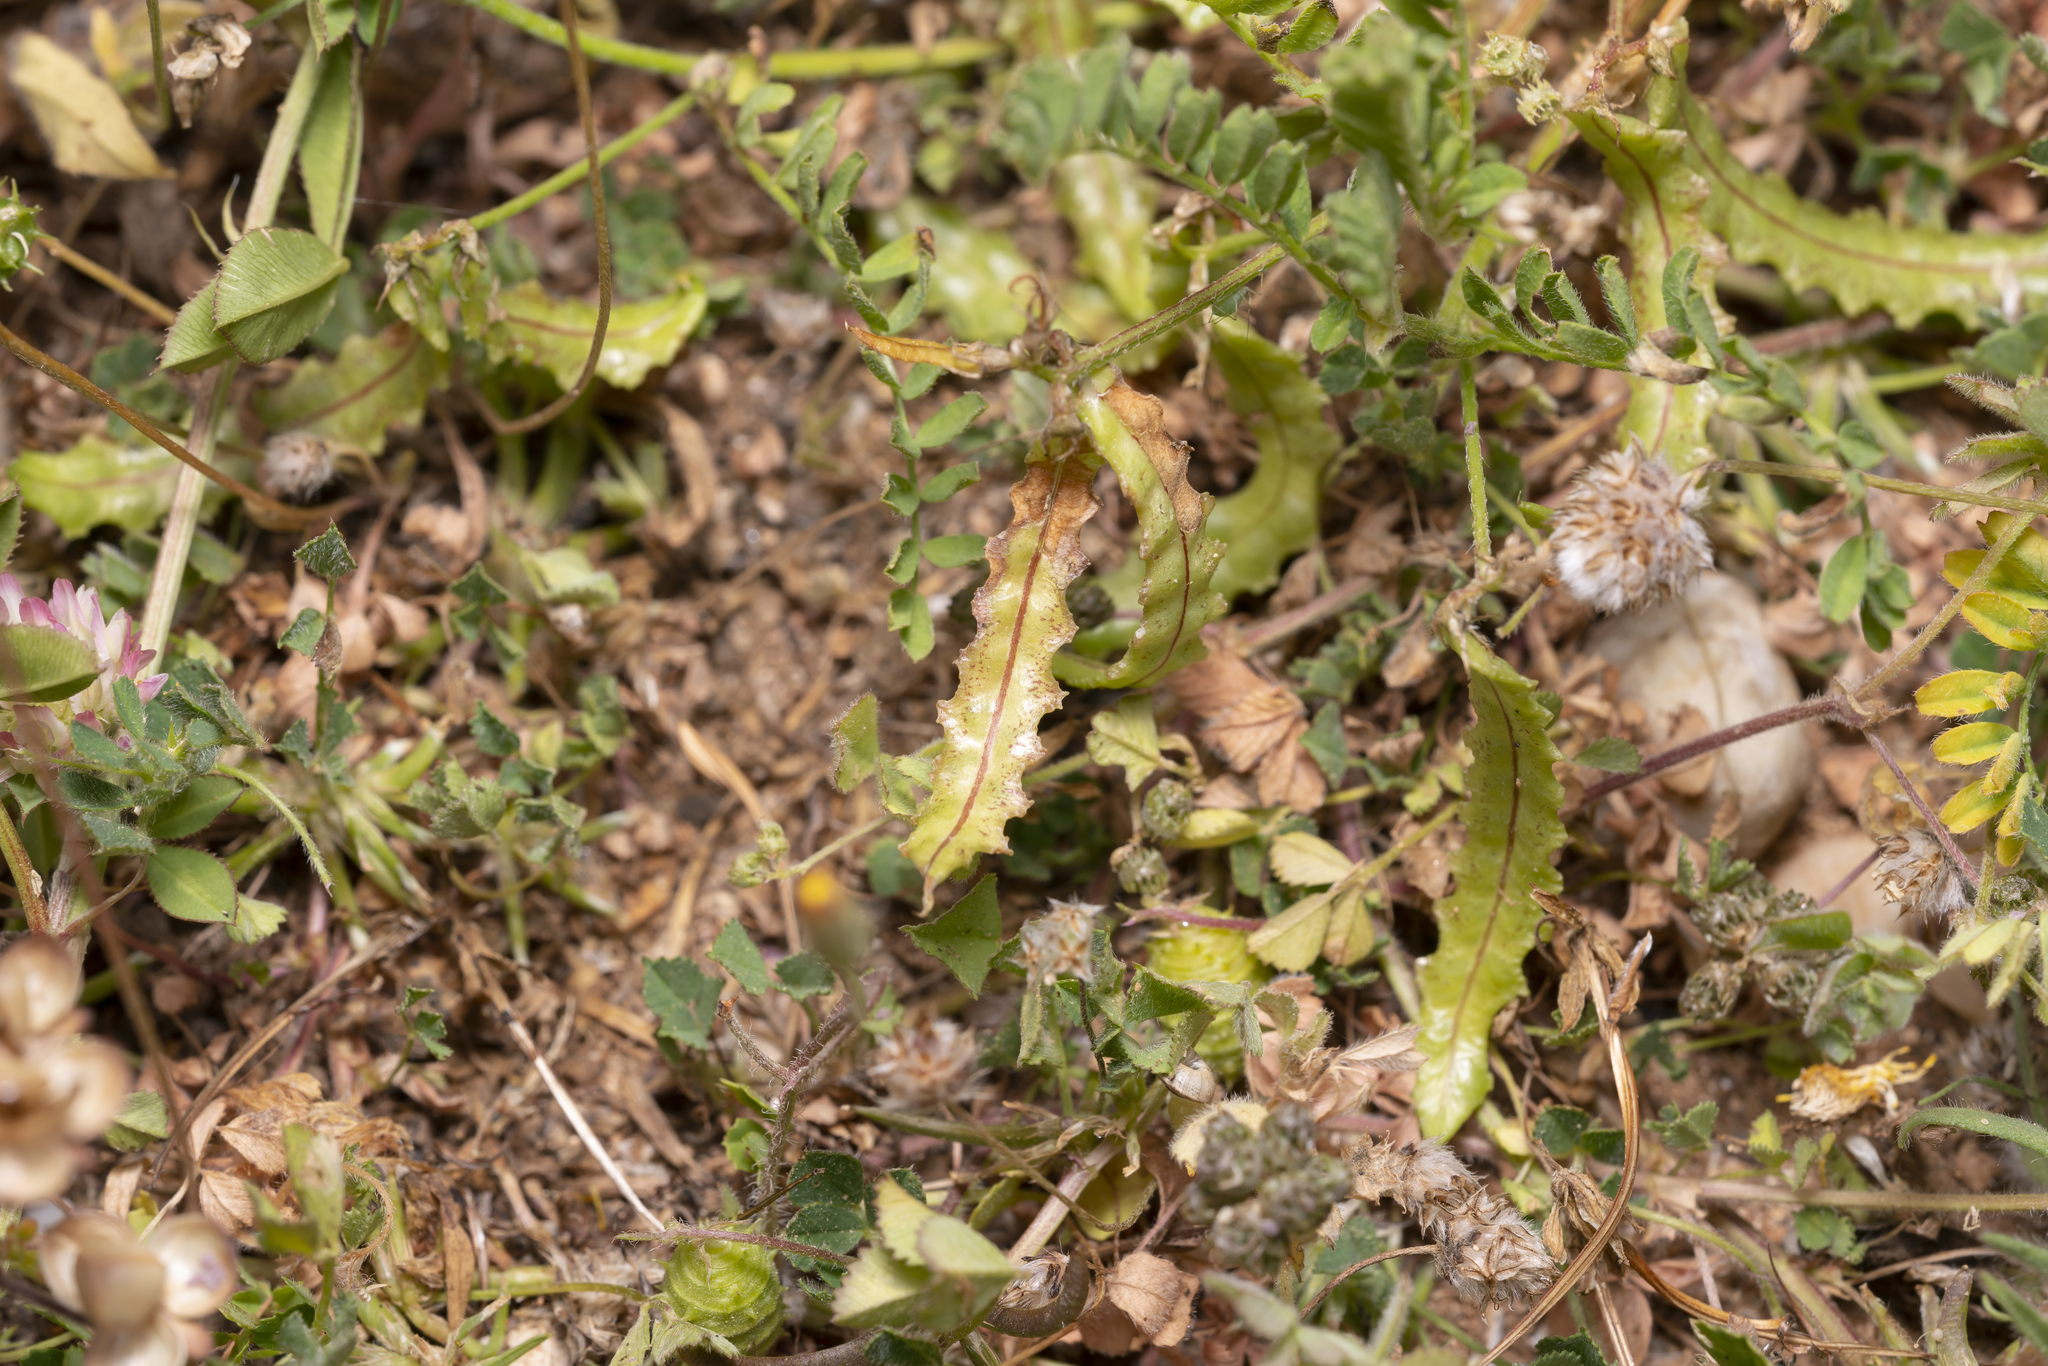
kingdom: Plantae
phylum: Tracheophyta
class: Magnoliopsida
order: Fabales
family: Fabaceae
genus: Biserrula
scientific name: Biserrula pelecinus
